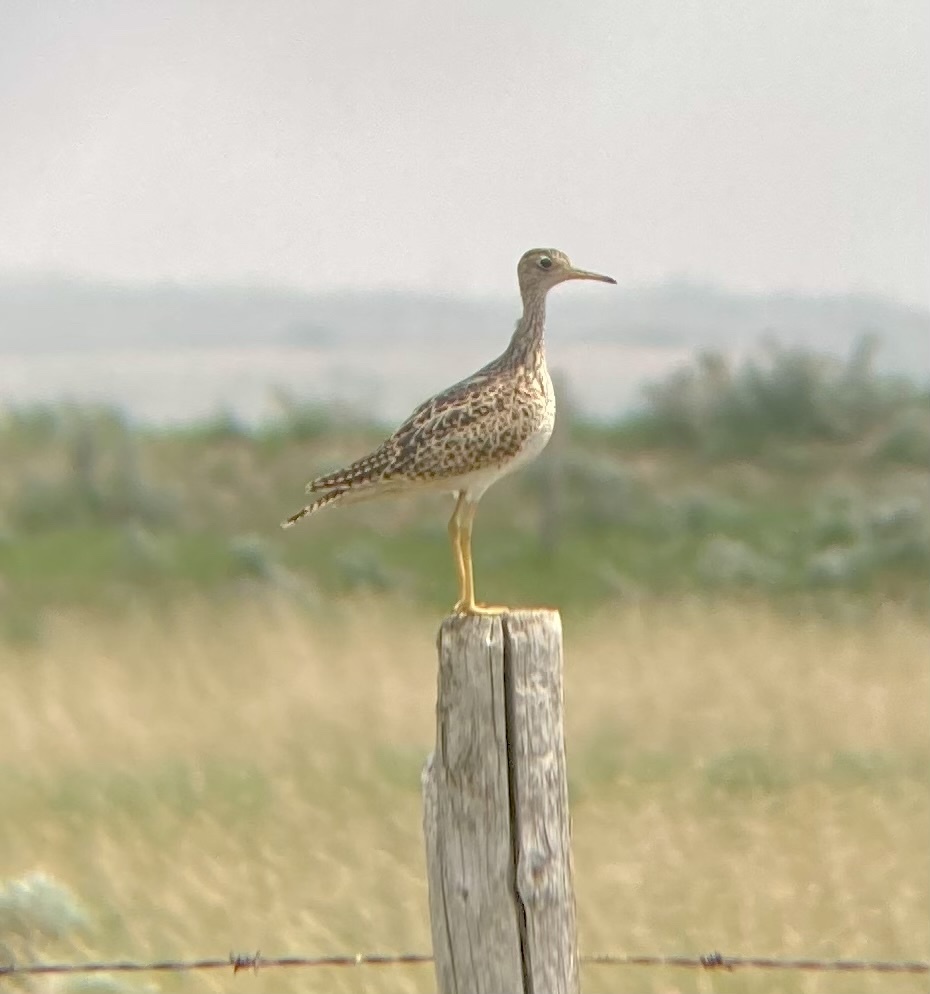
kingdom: Animalia
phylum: Chordata
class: Aves
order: Charadriiformes
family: Scolopacidae
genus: Bartramia
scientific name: Bartramia longicauda
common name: Upland sandpiper
